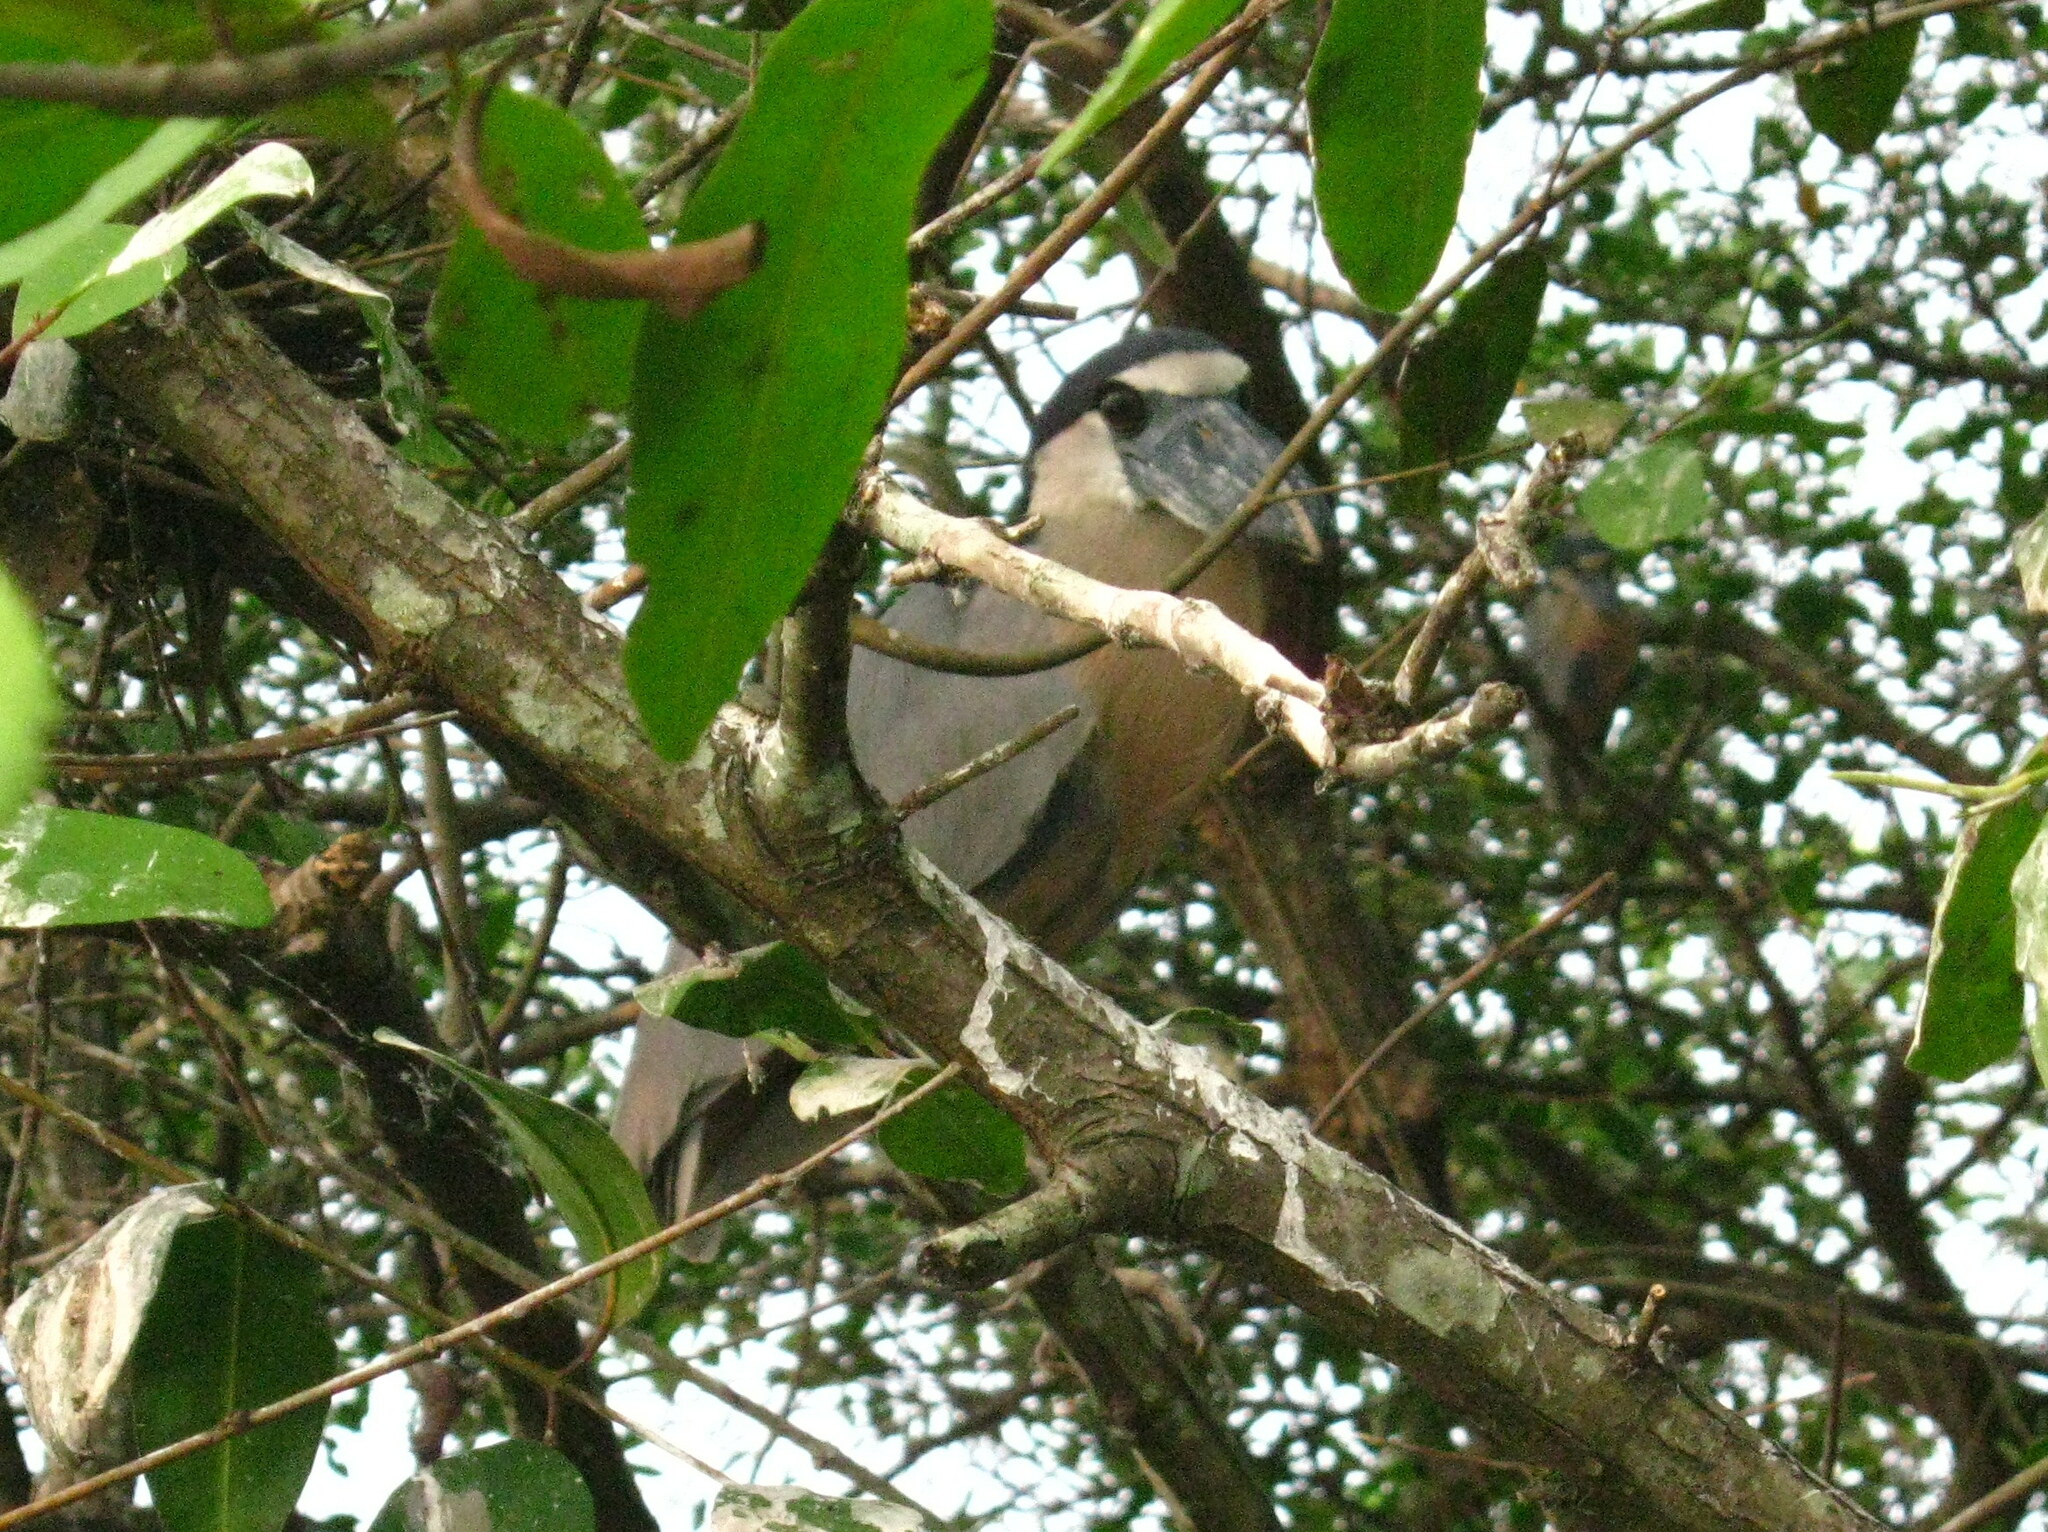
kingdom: Animalia
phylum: Chordata
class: Aves
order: Pelecaniformes
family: Ardeidae
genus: Cochlearius
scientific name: Cochlearius cochlearius
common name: Boat-billed heron
